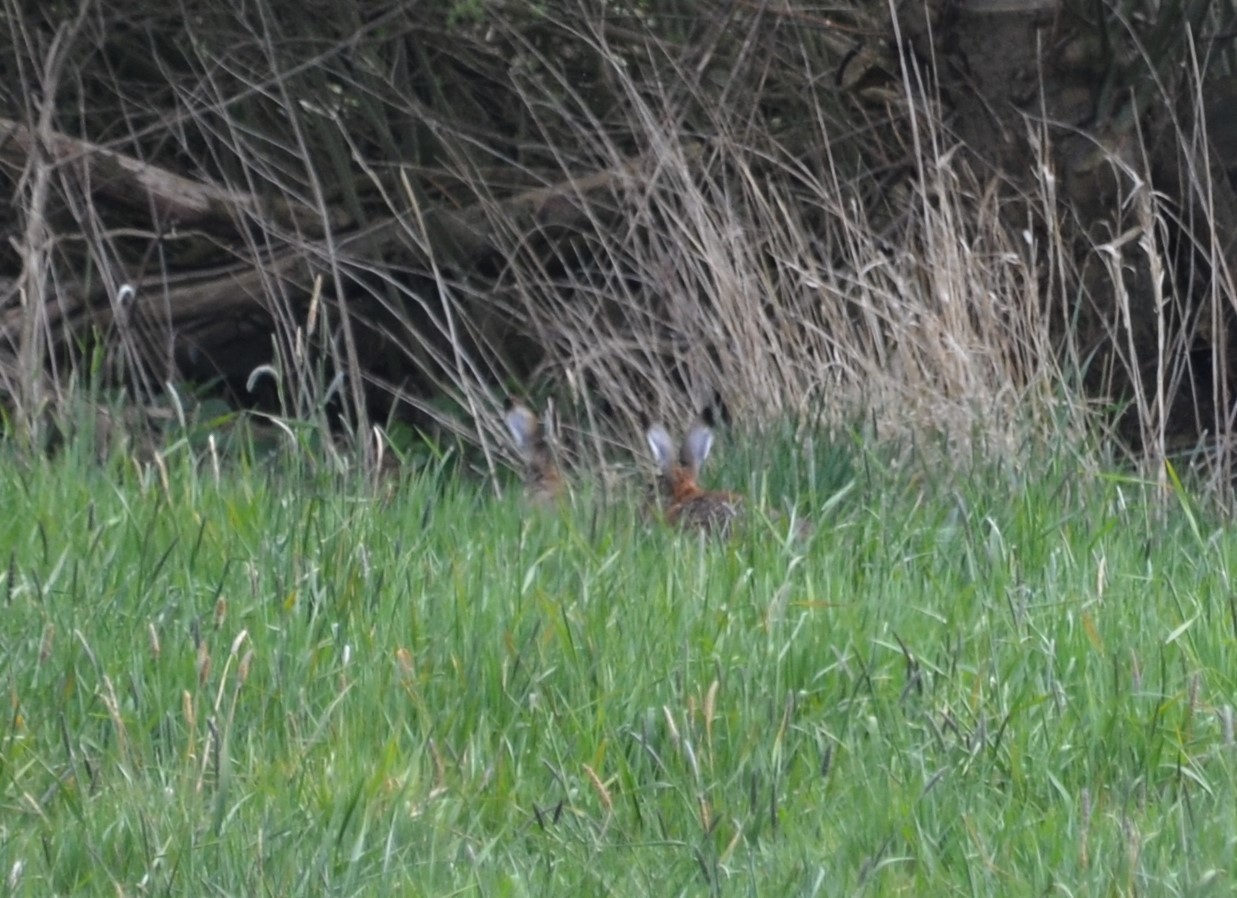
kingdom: Animalia
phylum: Chordata
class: Mammalia
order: Lagomorpha
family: Leporidae
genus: Lepus
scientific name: Lepus europaeus
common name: European hare
